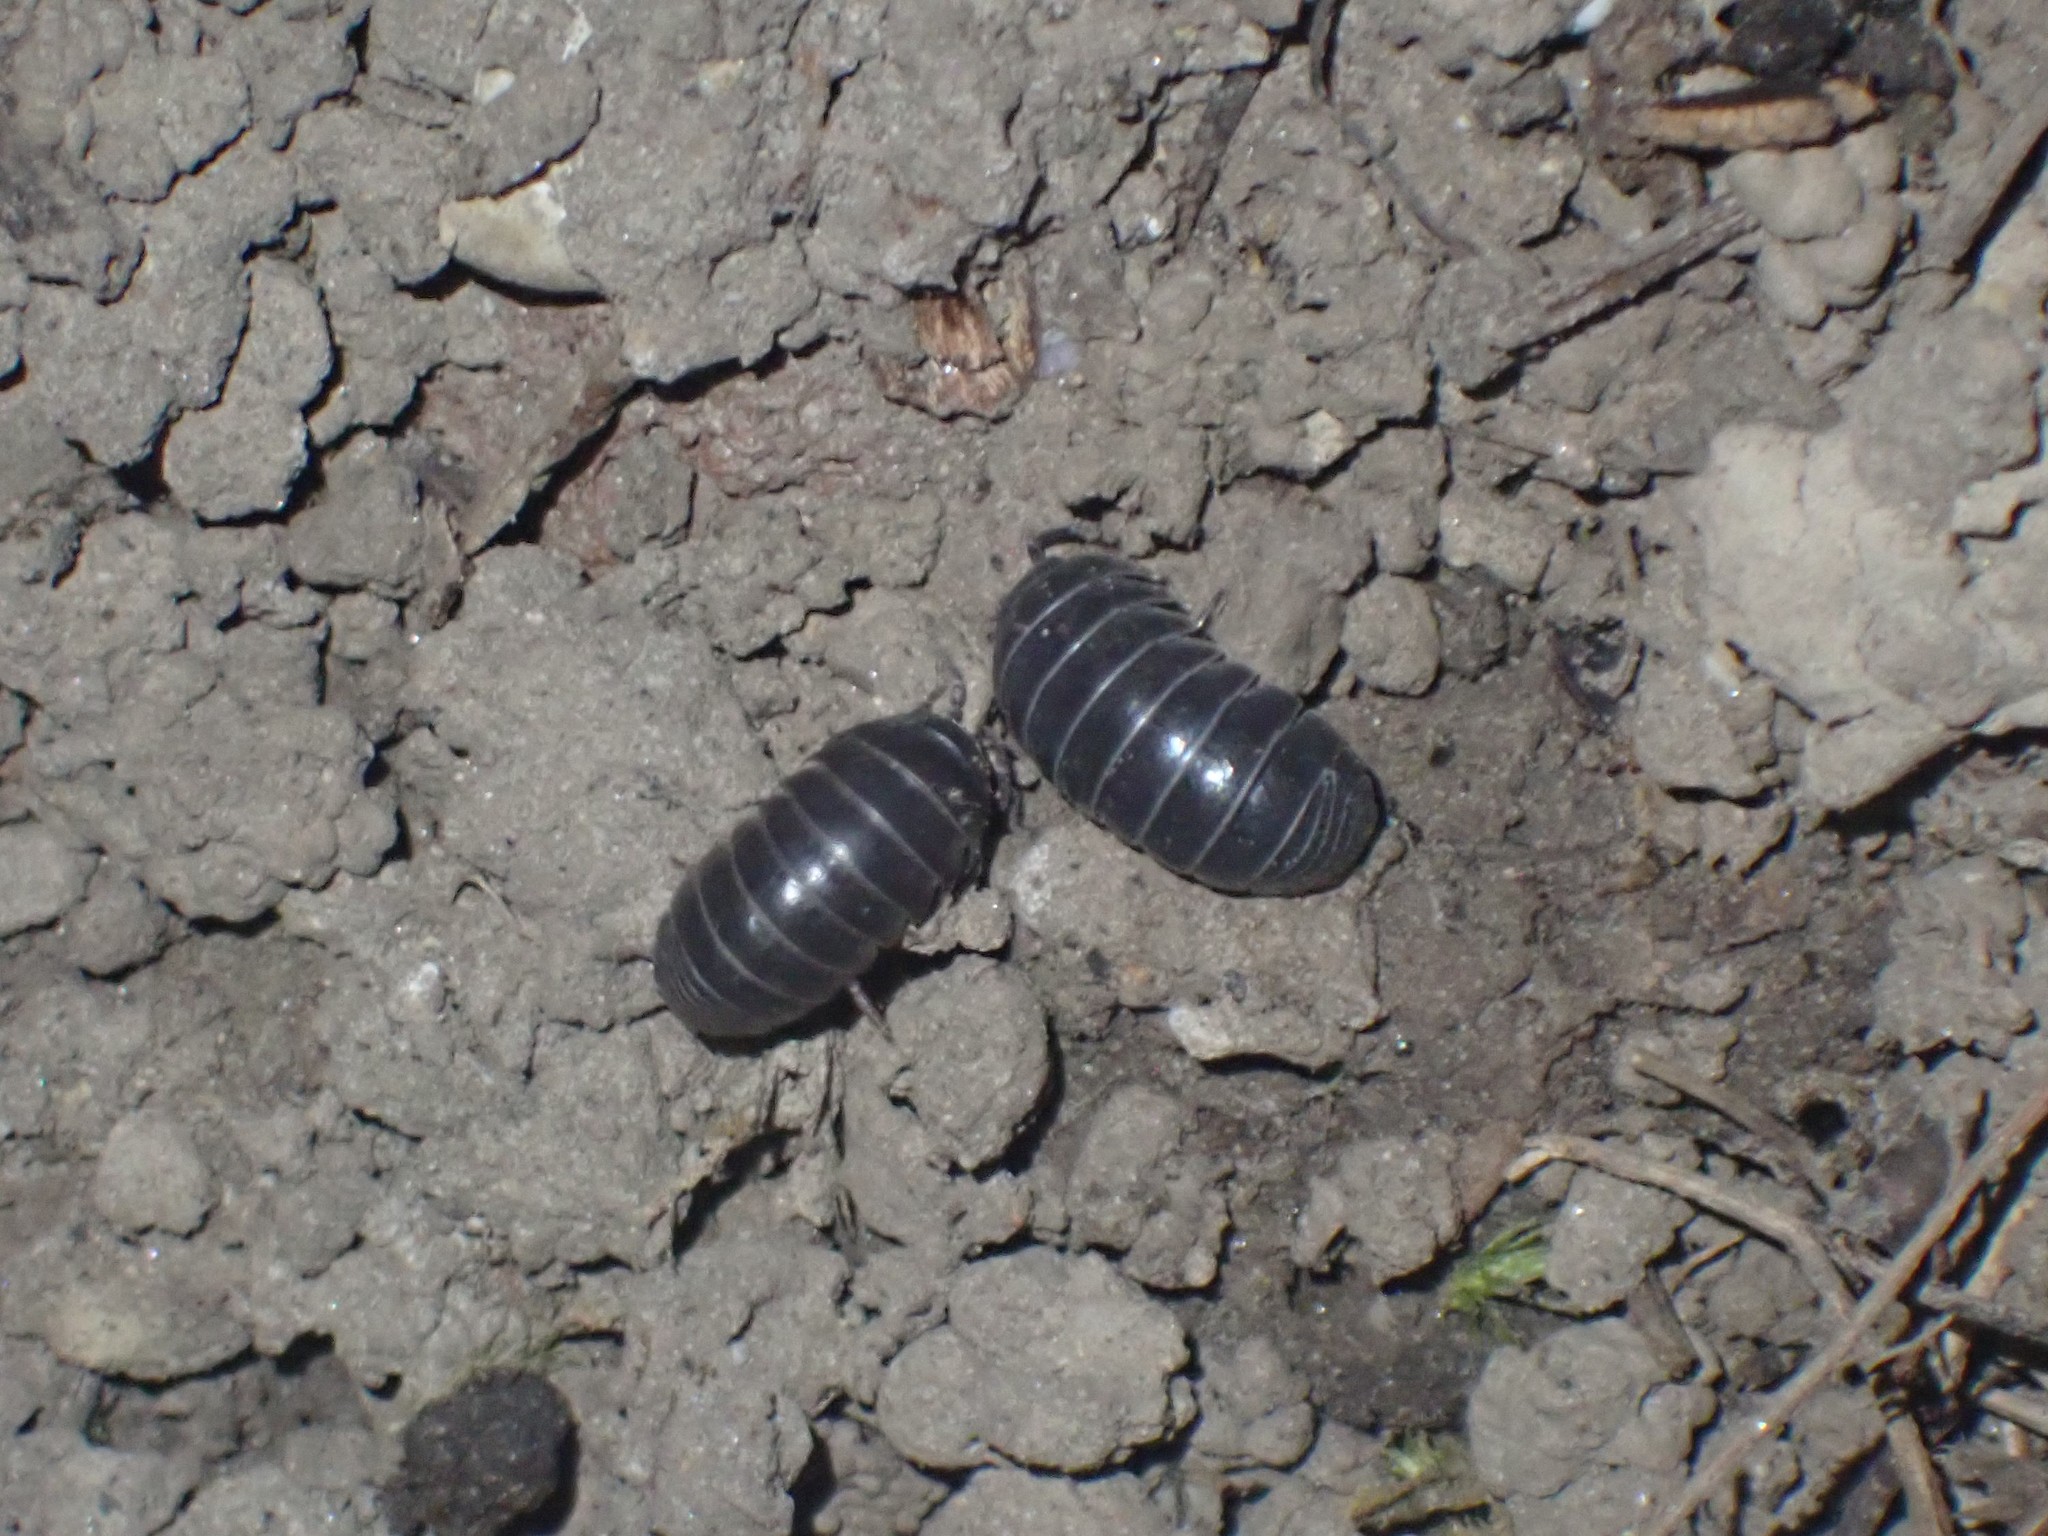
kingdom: Animalia
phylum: Arthropoda
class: Malacostraca
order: Isopoda
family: Armadillidiidae
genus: Armadillidium
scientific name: Armadillidium vulgare
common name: Common pill woodlouse
